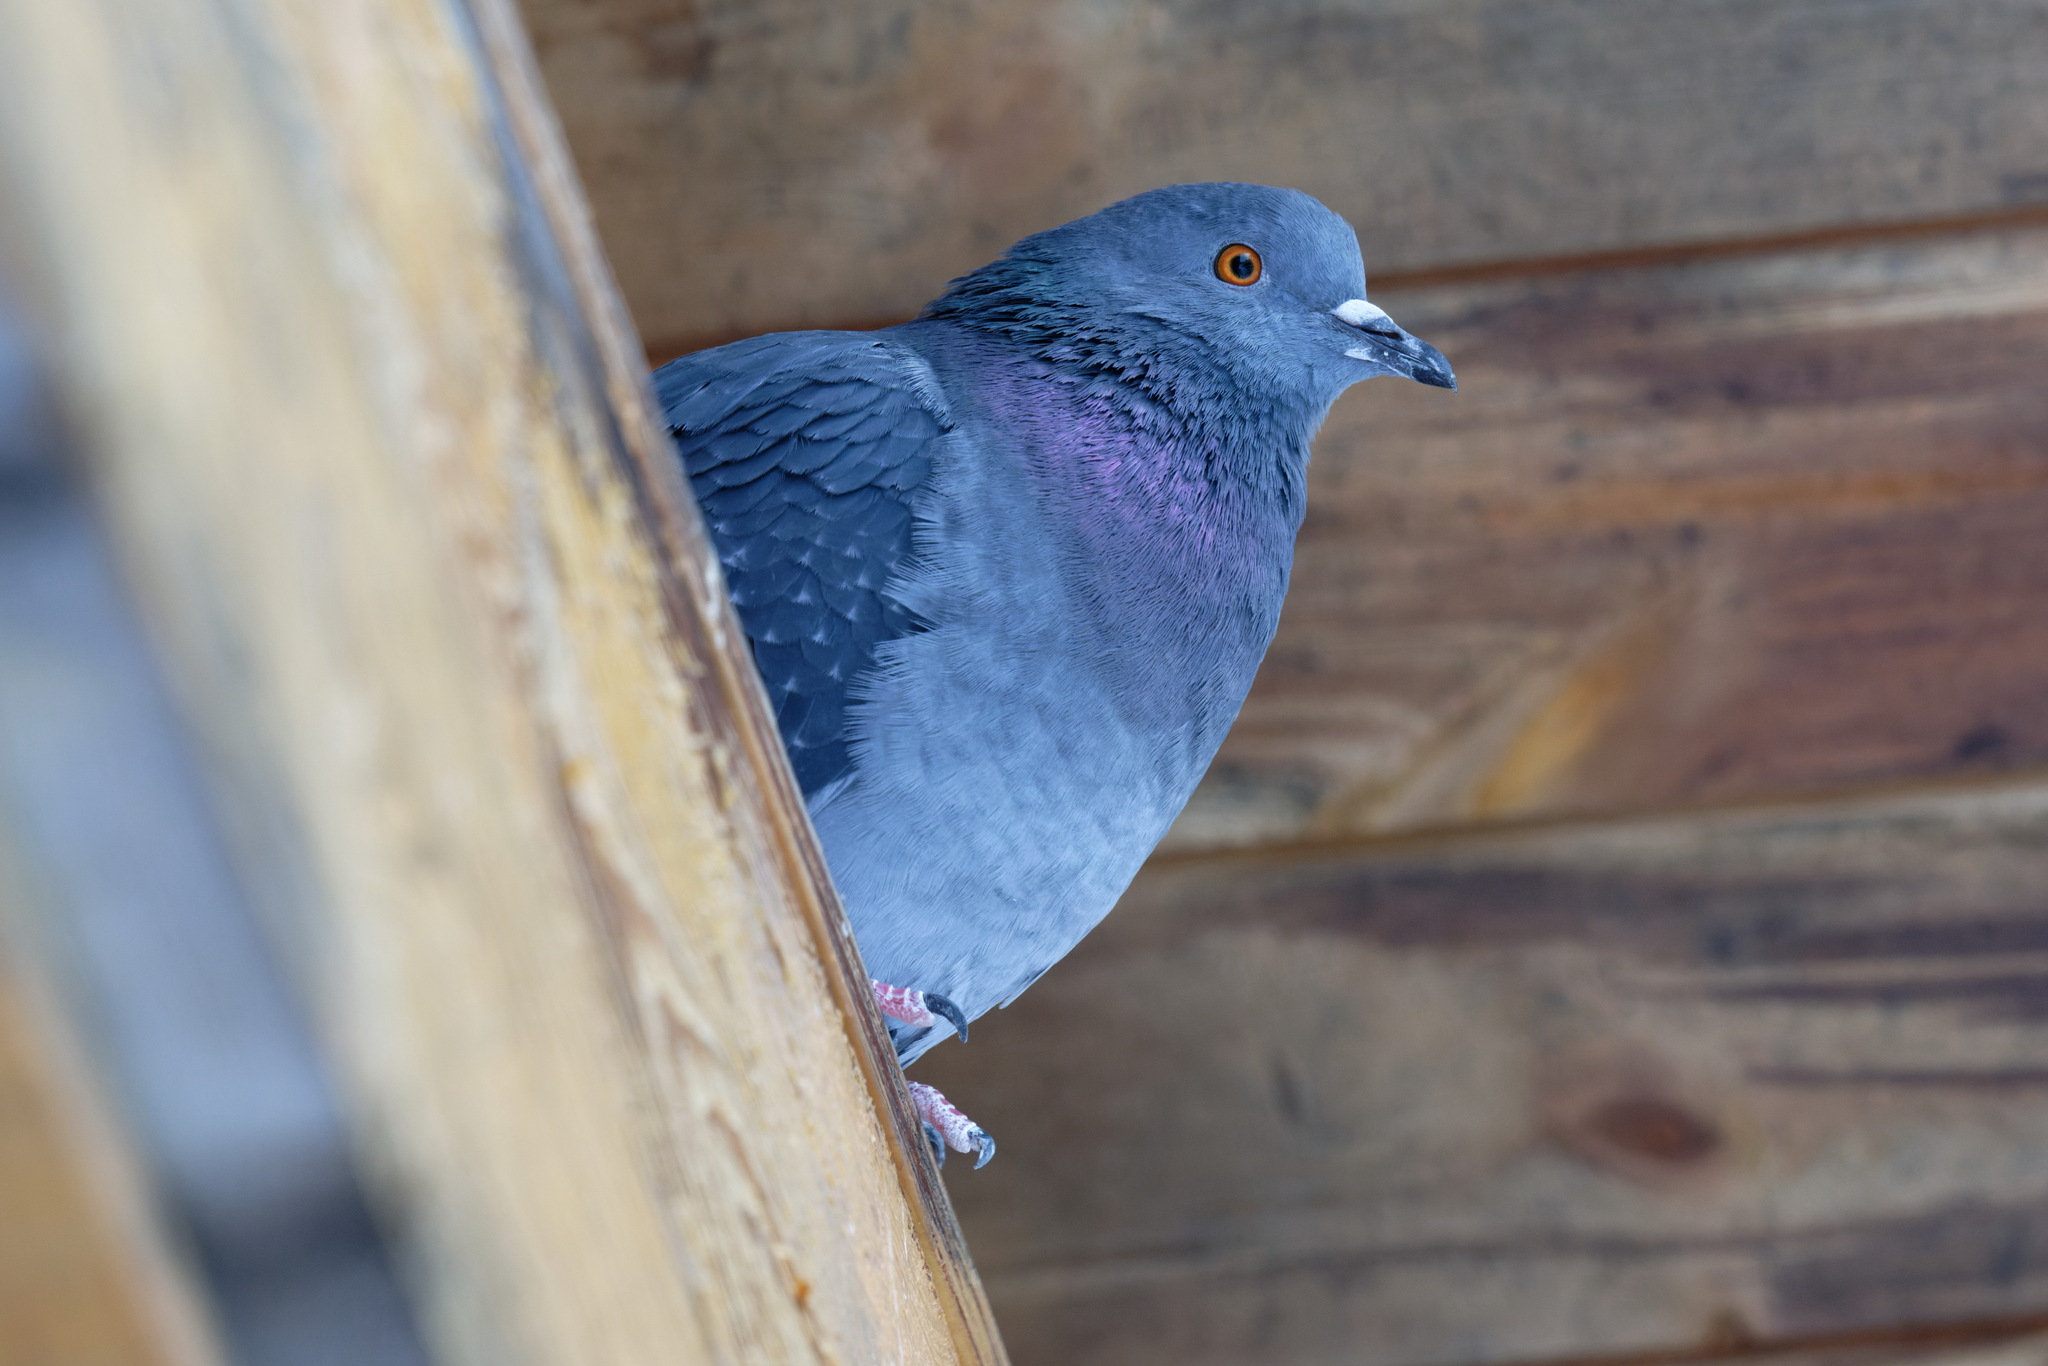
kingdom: Animalia
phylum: Chordata
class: Aves
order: Columbiformes
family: Columbidae
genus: Columba
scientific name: Columba livia
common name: Rock pigeon
